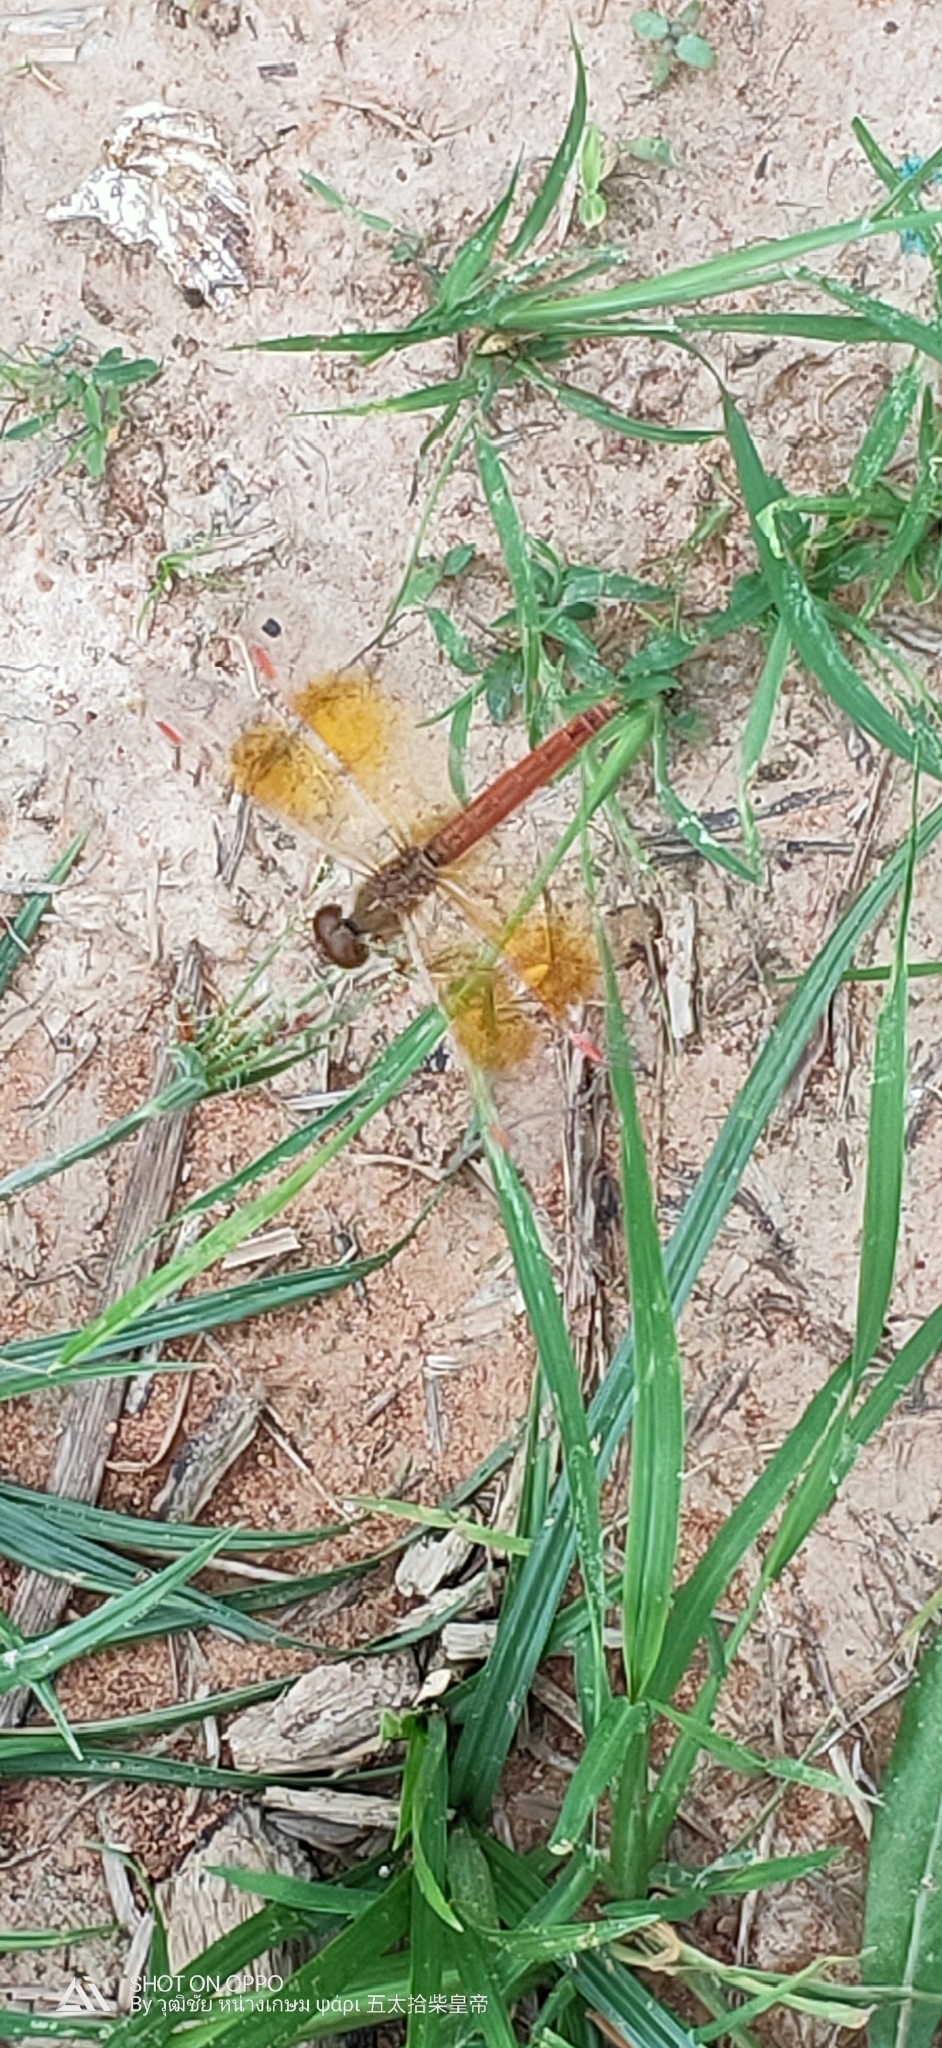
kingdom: Animalia
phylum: Arthropoda
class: Insecta
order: Odonata
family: Libellulidae
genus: Brachythemis
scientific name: Brachythemis contaminata
